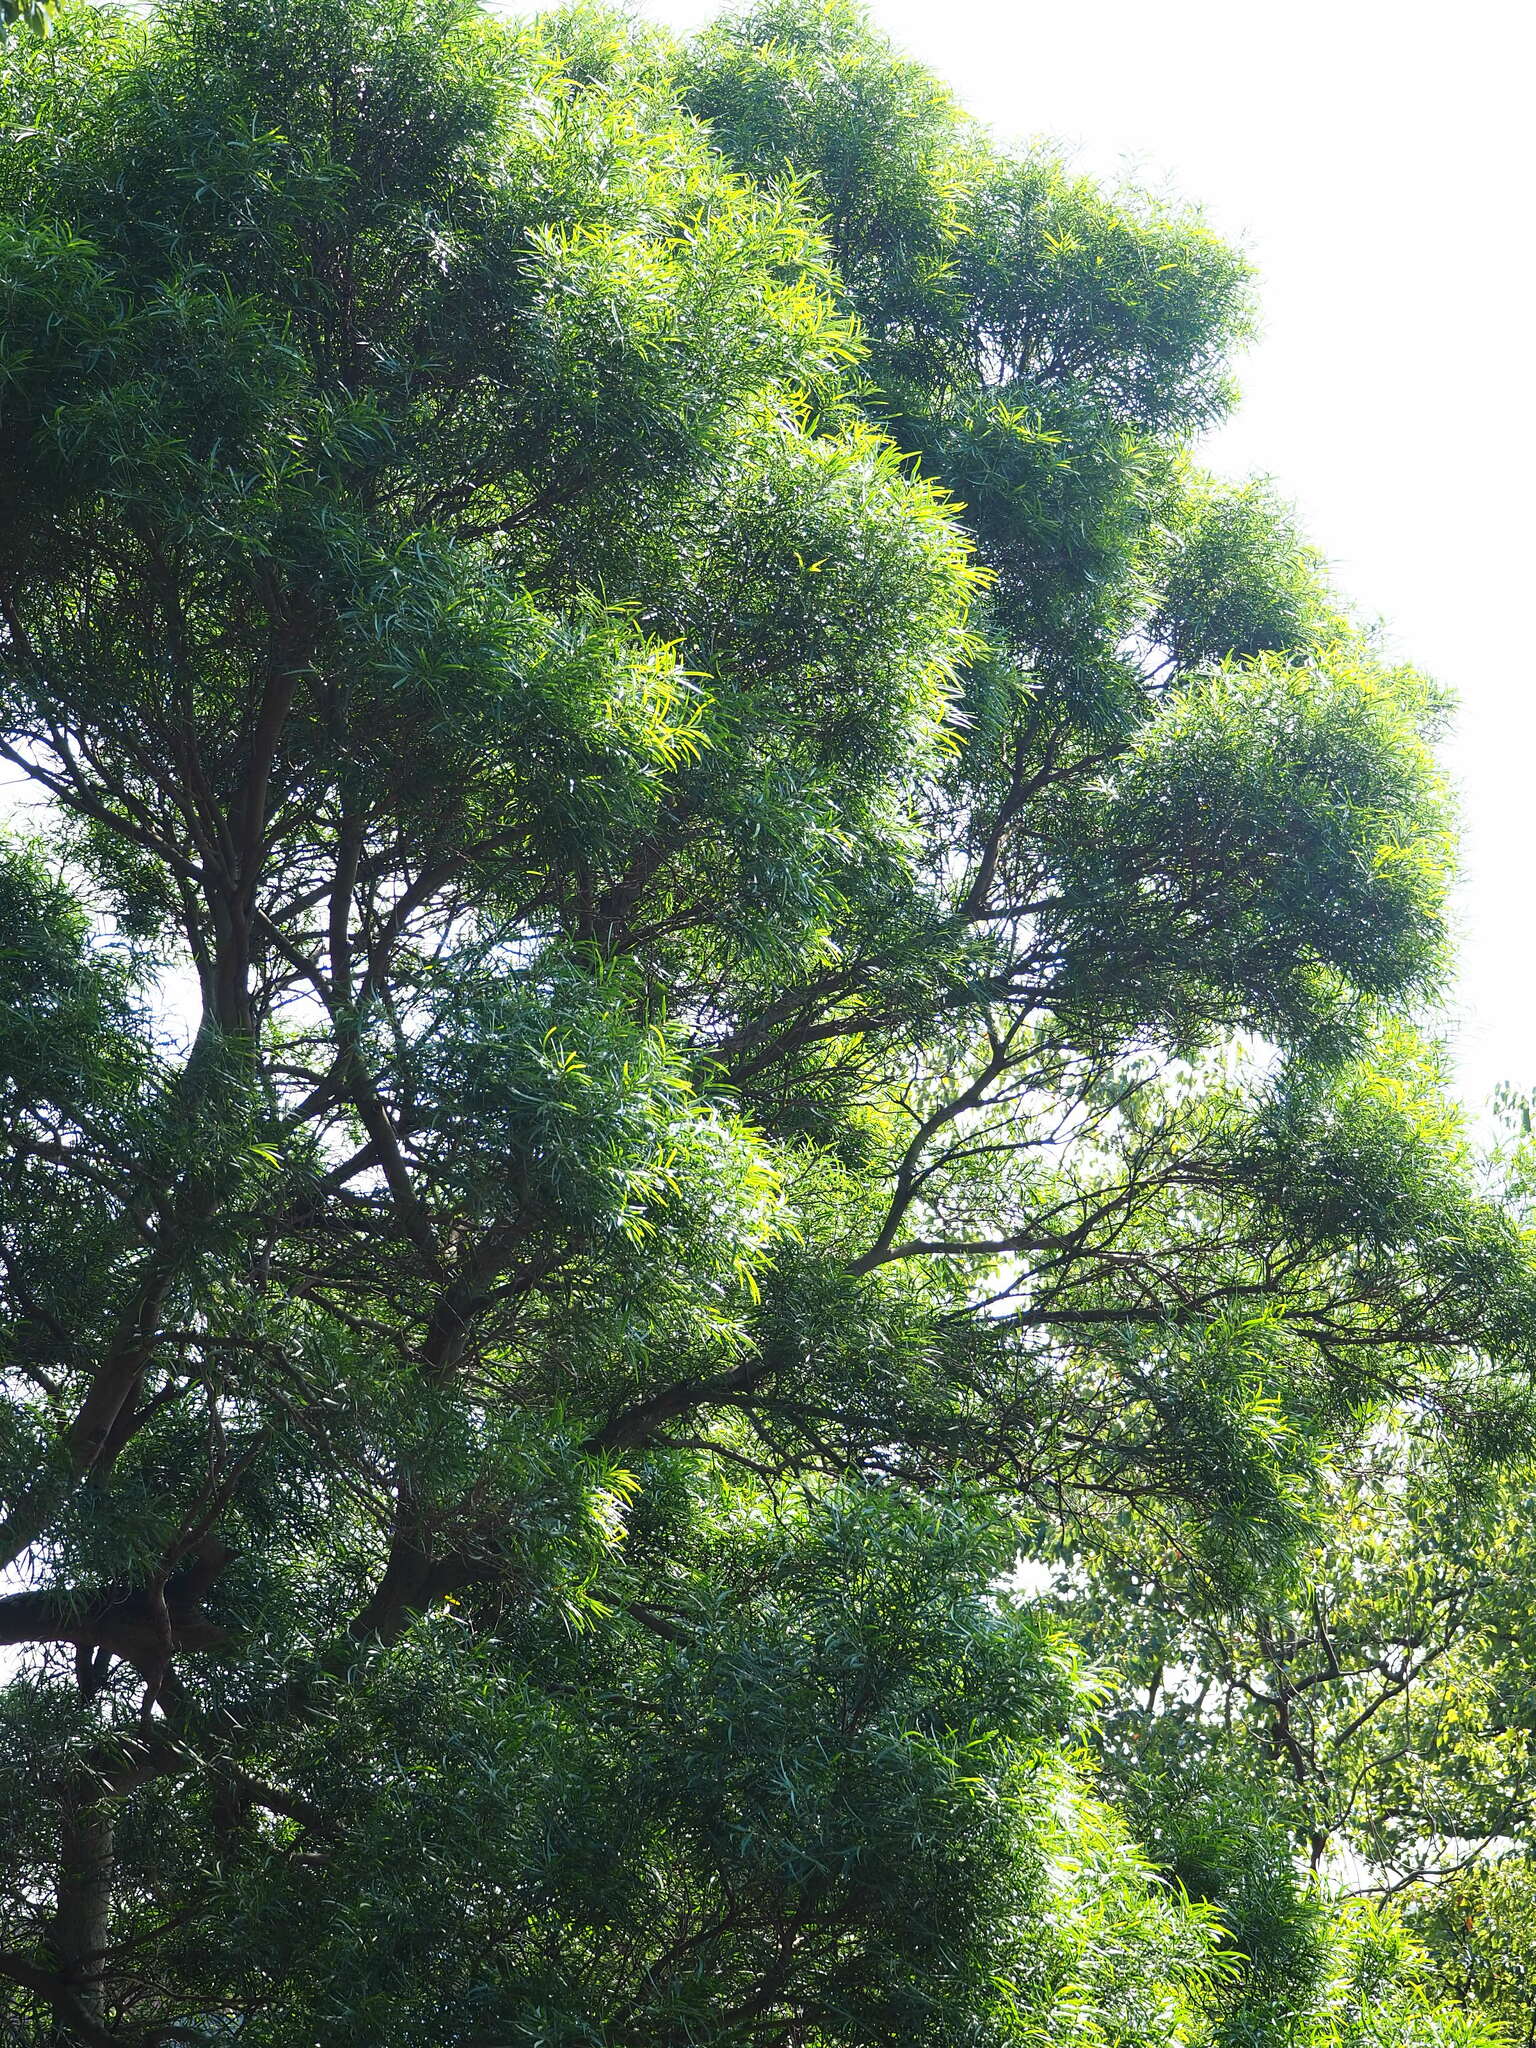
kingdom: Plantae
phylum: Tracheophyta
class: Magnoliopsida
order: Fabales
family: Fabaceae
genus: Acacia
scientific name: Acacia confusa
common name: Formosan koa
